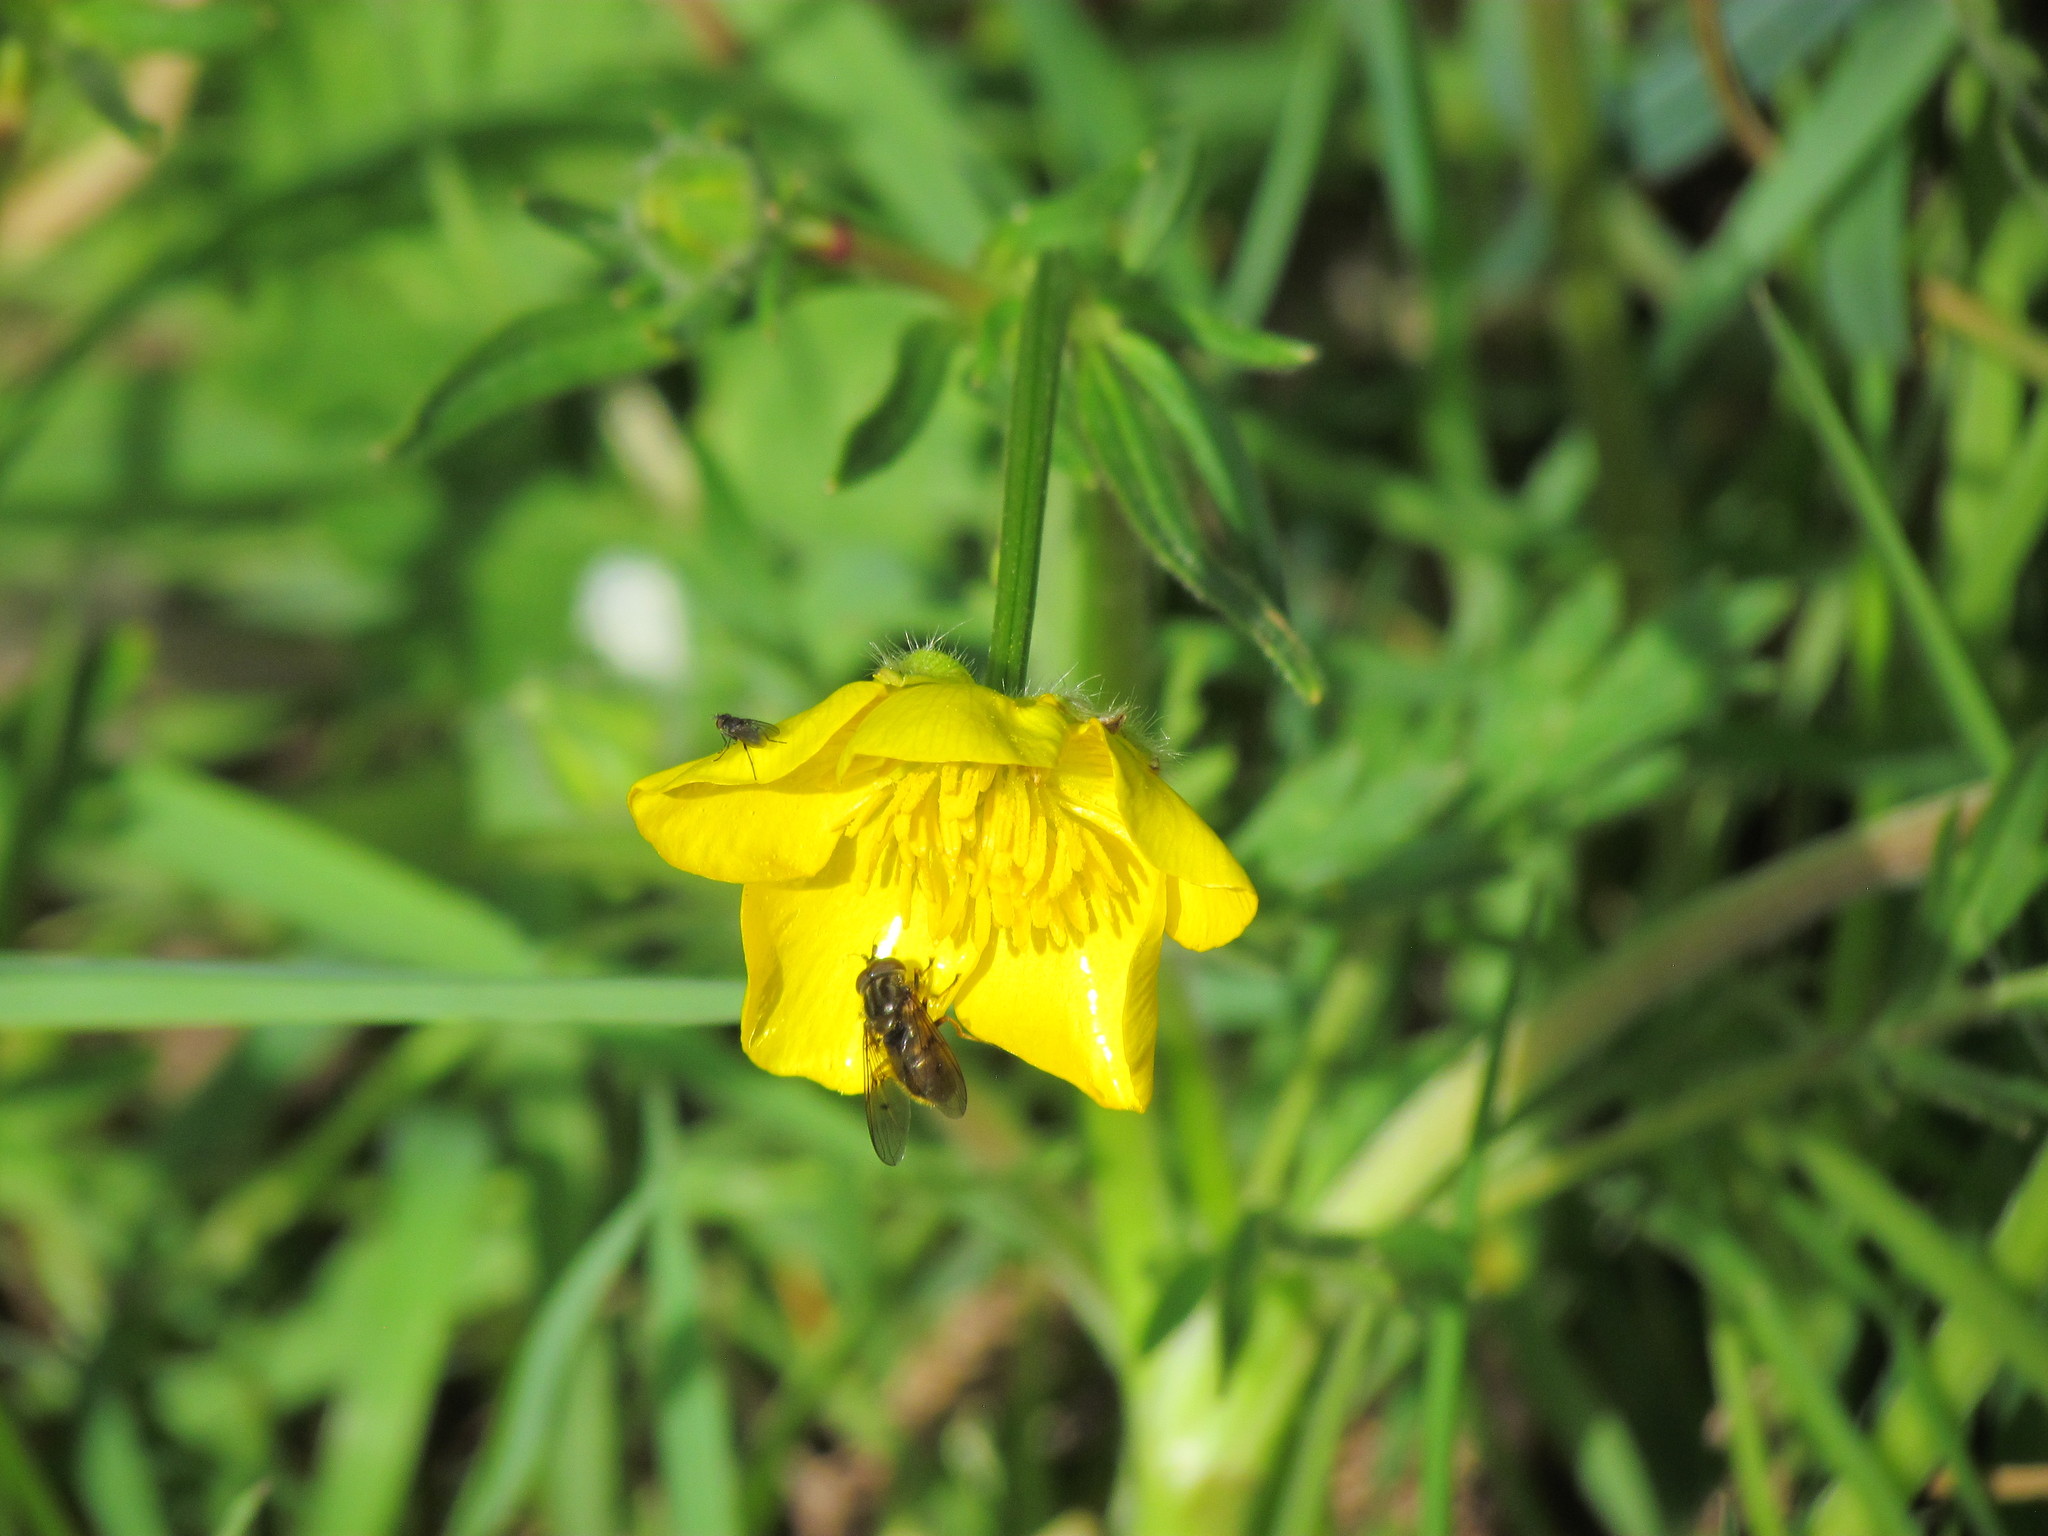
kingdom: Animalia
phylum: Arthropoda
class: Insecta
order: Diptera
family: Syrphidae
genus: Ferdinandea
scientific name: Ferdinandea cuprea
